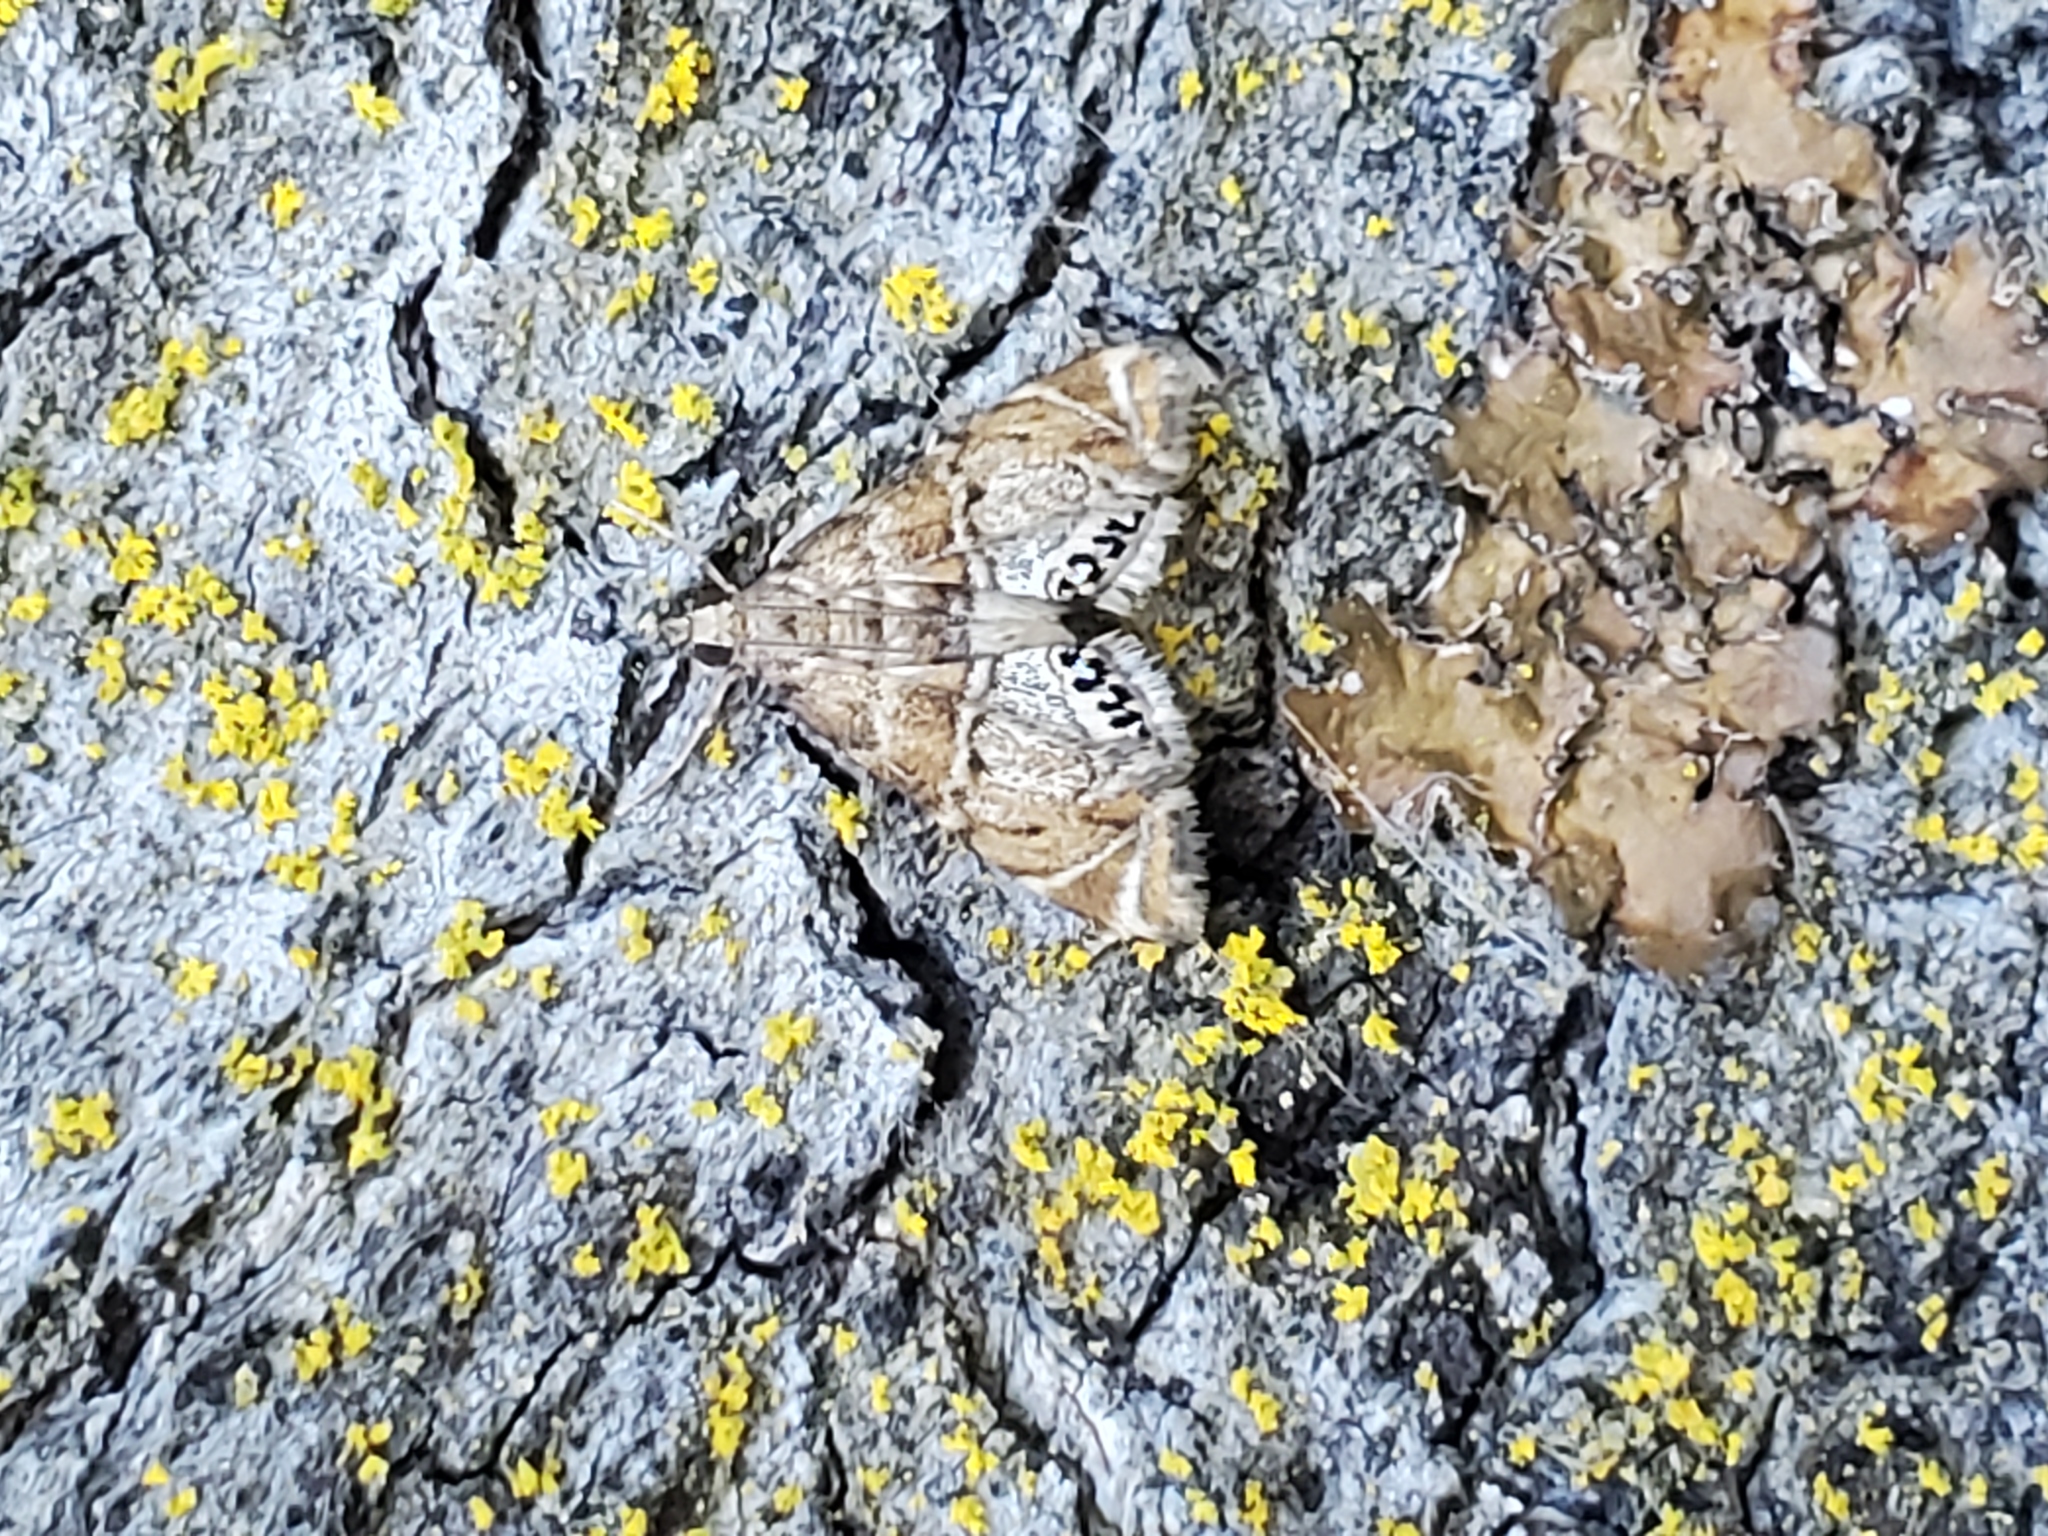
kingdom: Animalia
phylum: Arthropoda
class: Insecta
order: Lepidoptera
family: Crambidae
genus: Petrophila
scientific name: Petrophila confusalis
